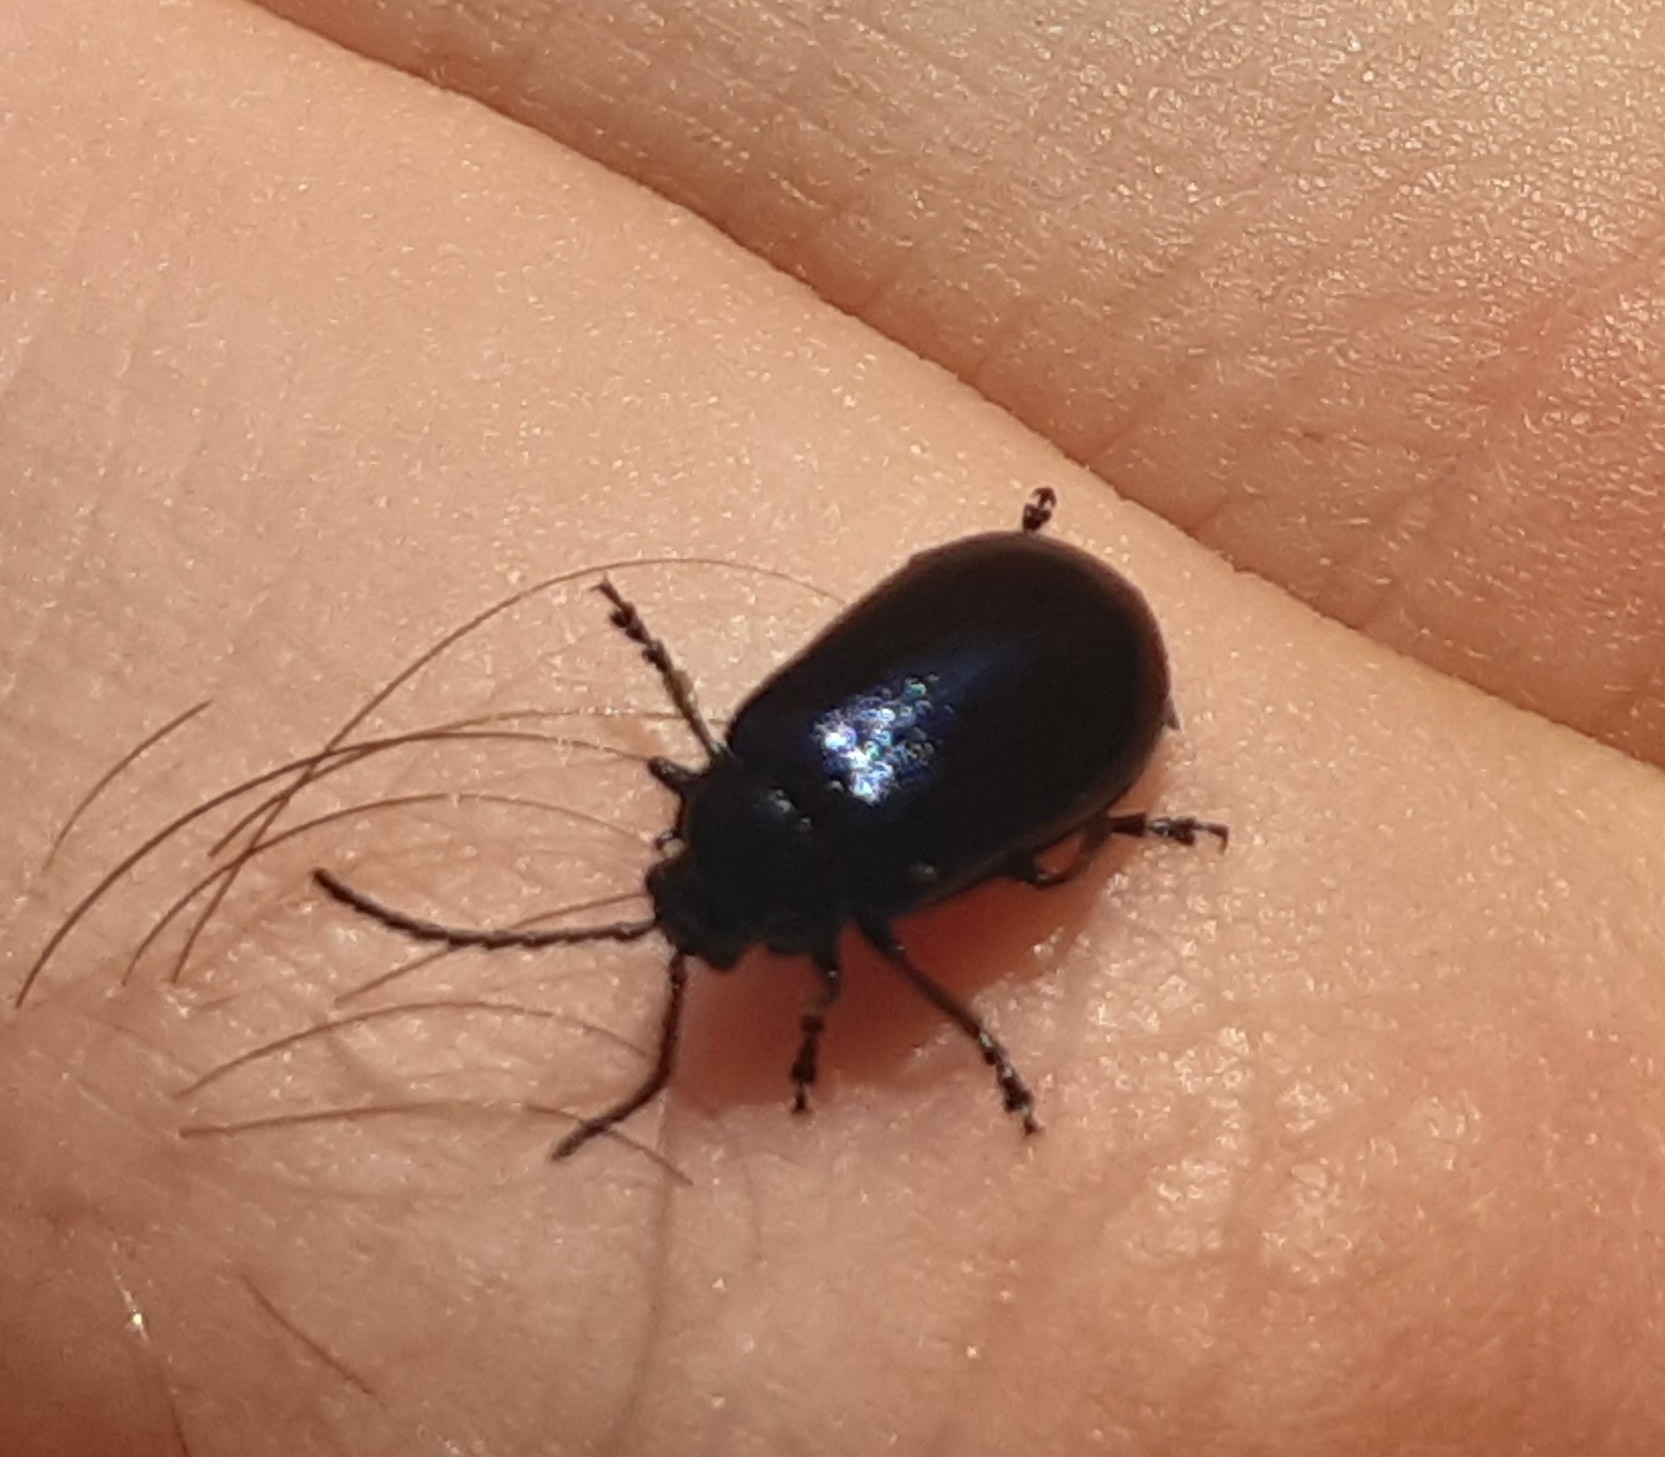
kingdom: Animalia
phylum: Arthropoda
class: Insecta
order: Coleoptera
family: Chrysomelidae
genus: Agelastica
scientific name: Agelastica alni
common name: Alder leaf beetle
